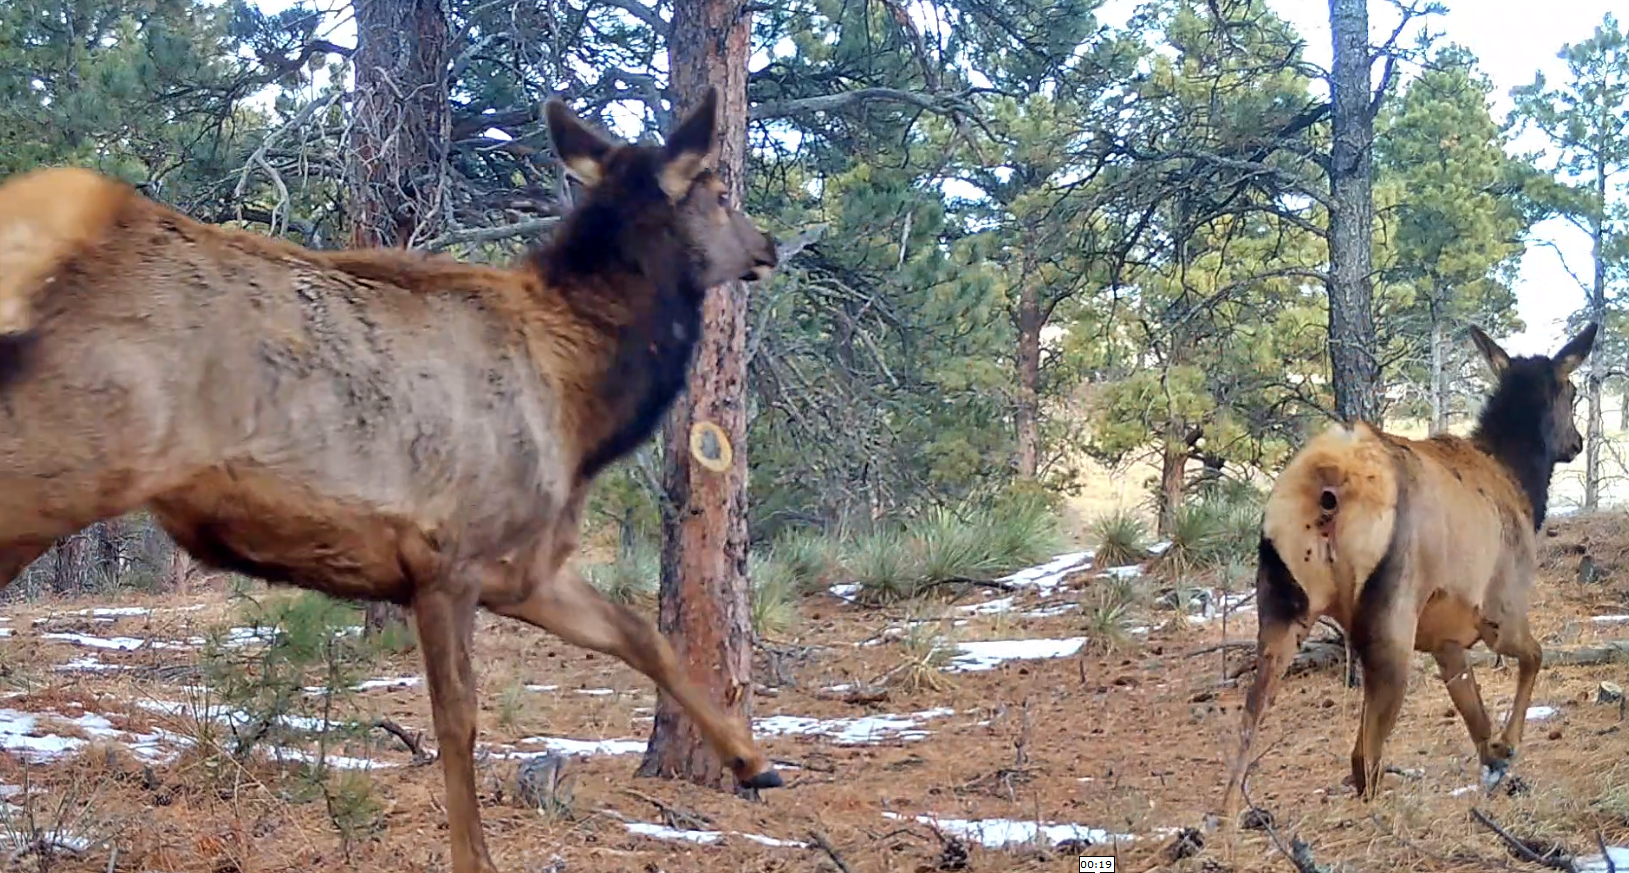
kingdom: Animalia
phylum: Chordata
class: Mammalia
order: Artiodactyla
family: Cervidae
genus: Cervus
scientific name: Cervus elaphus
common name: Red deer
